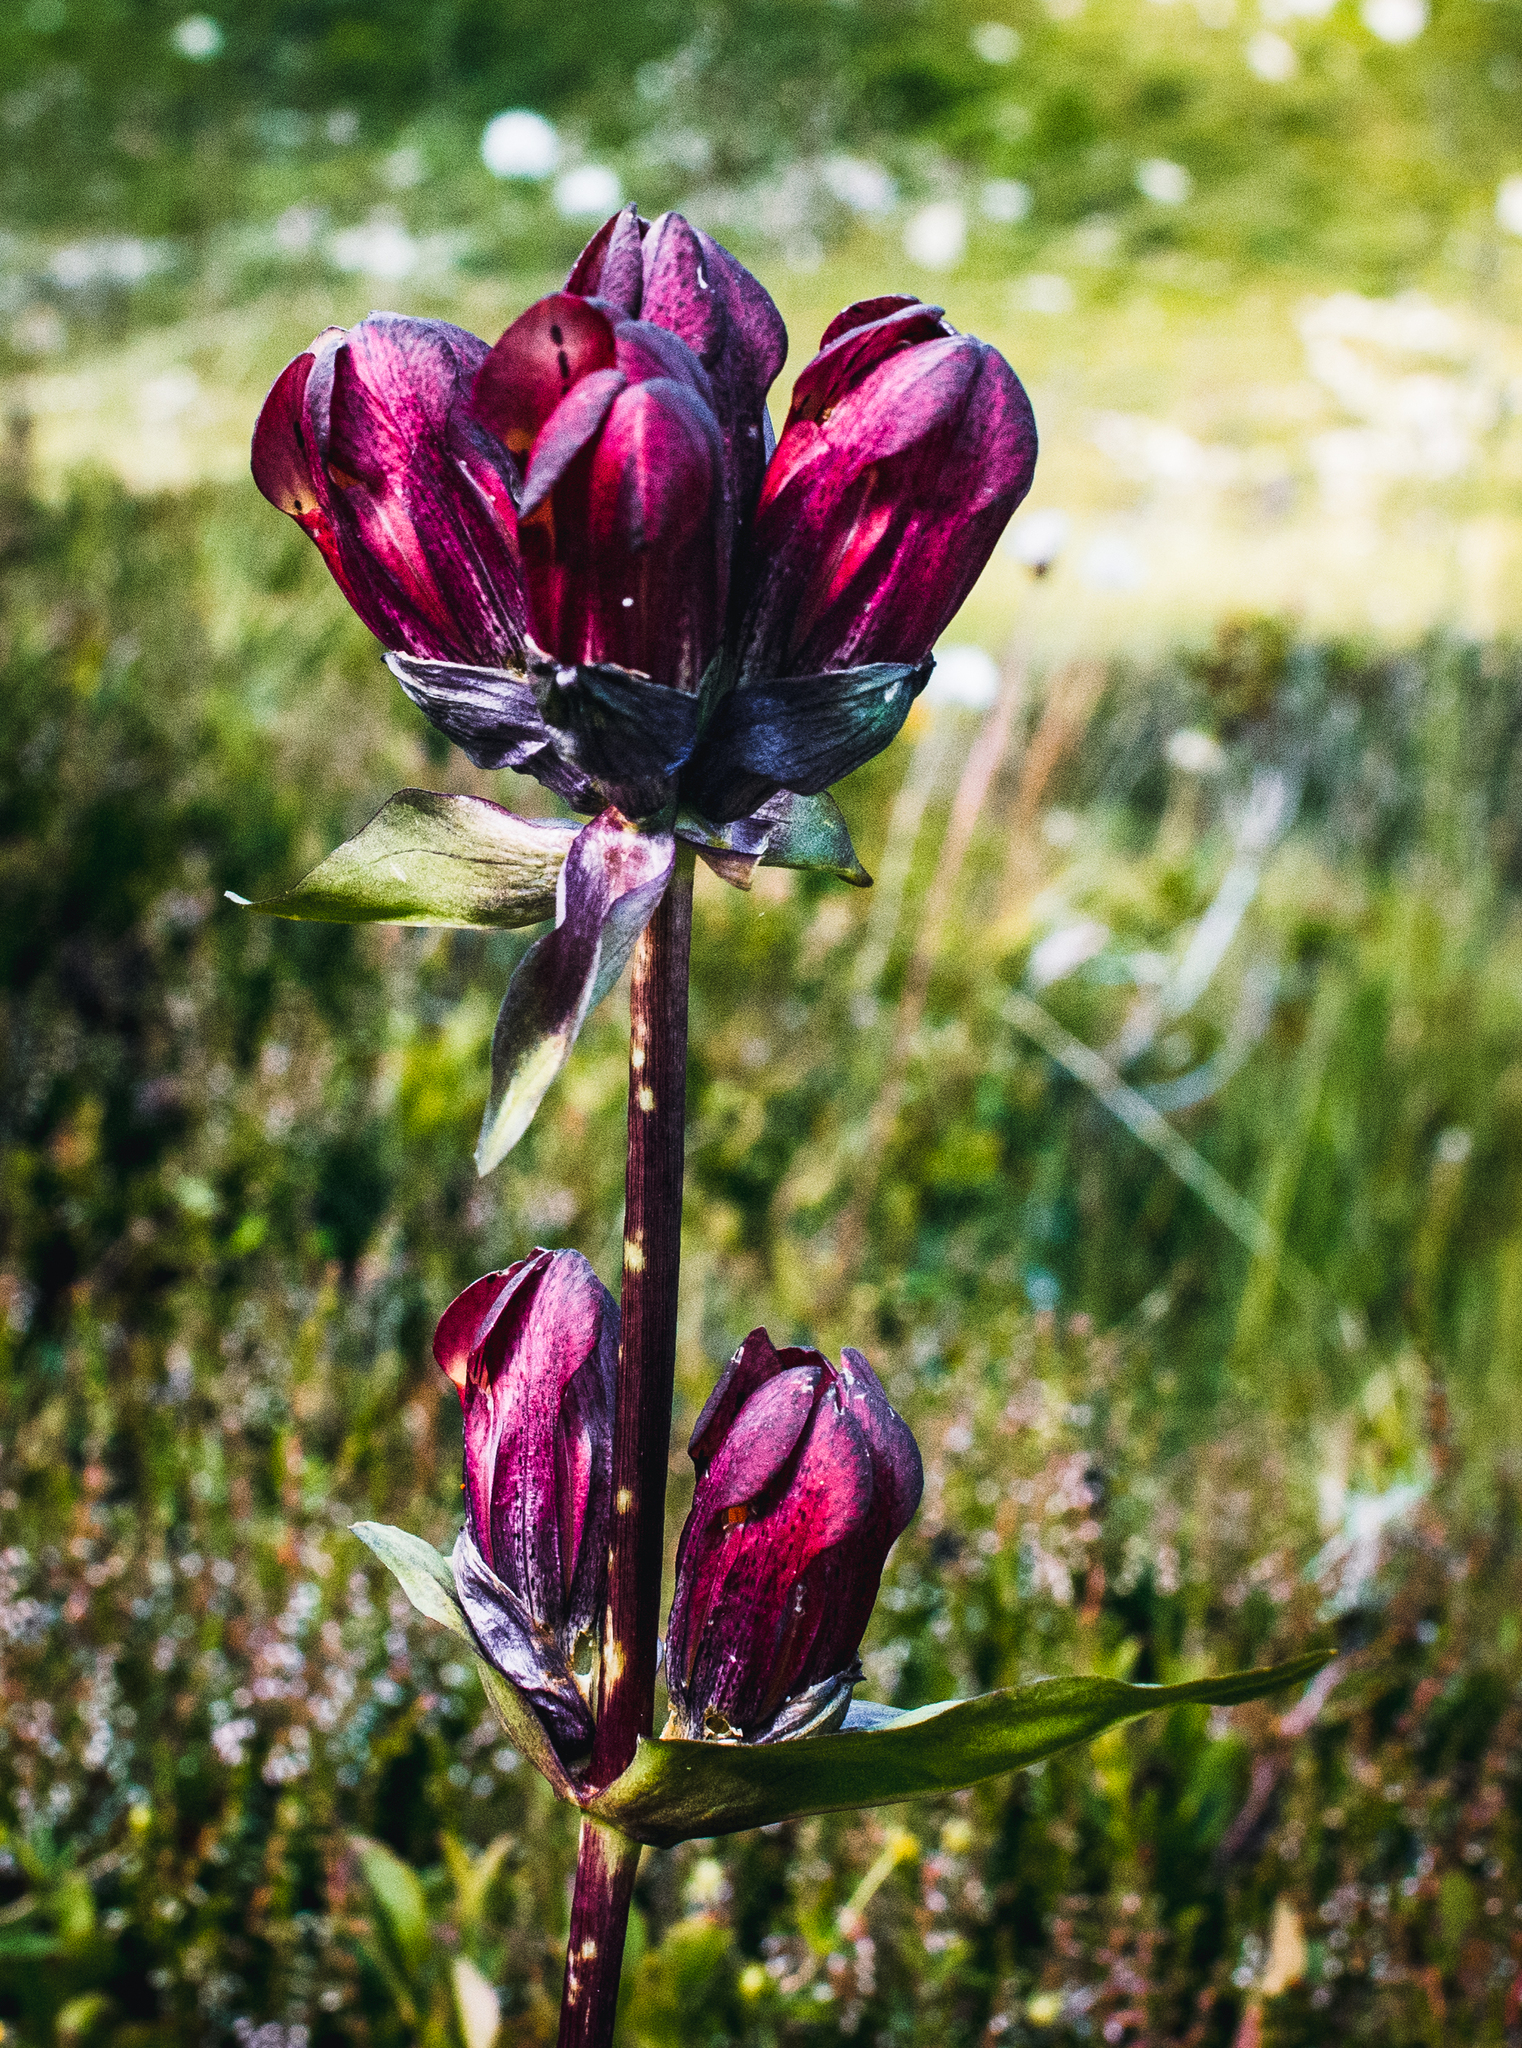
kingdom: Plantae
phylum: Tracheophyta
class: Magnoliopsida
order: Gentianales
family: Gentianaceae
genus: Gentiana
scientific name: Gentiana purpurea
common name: Purple gentian
